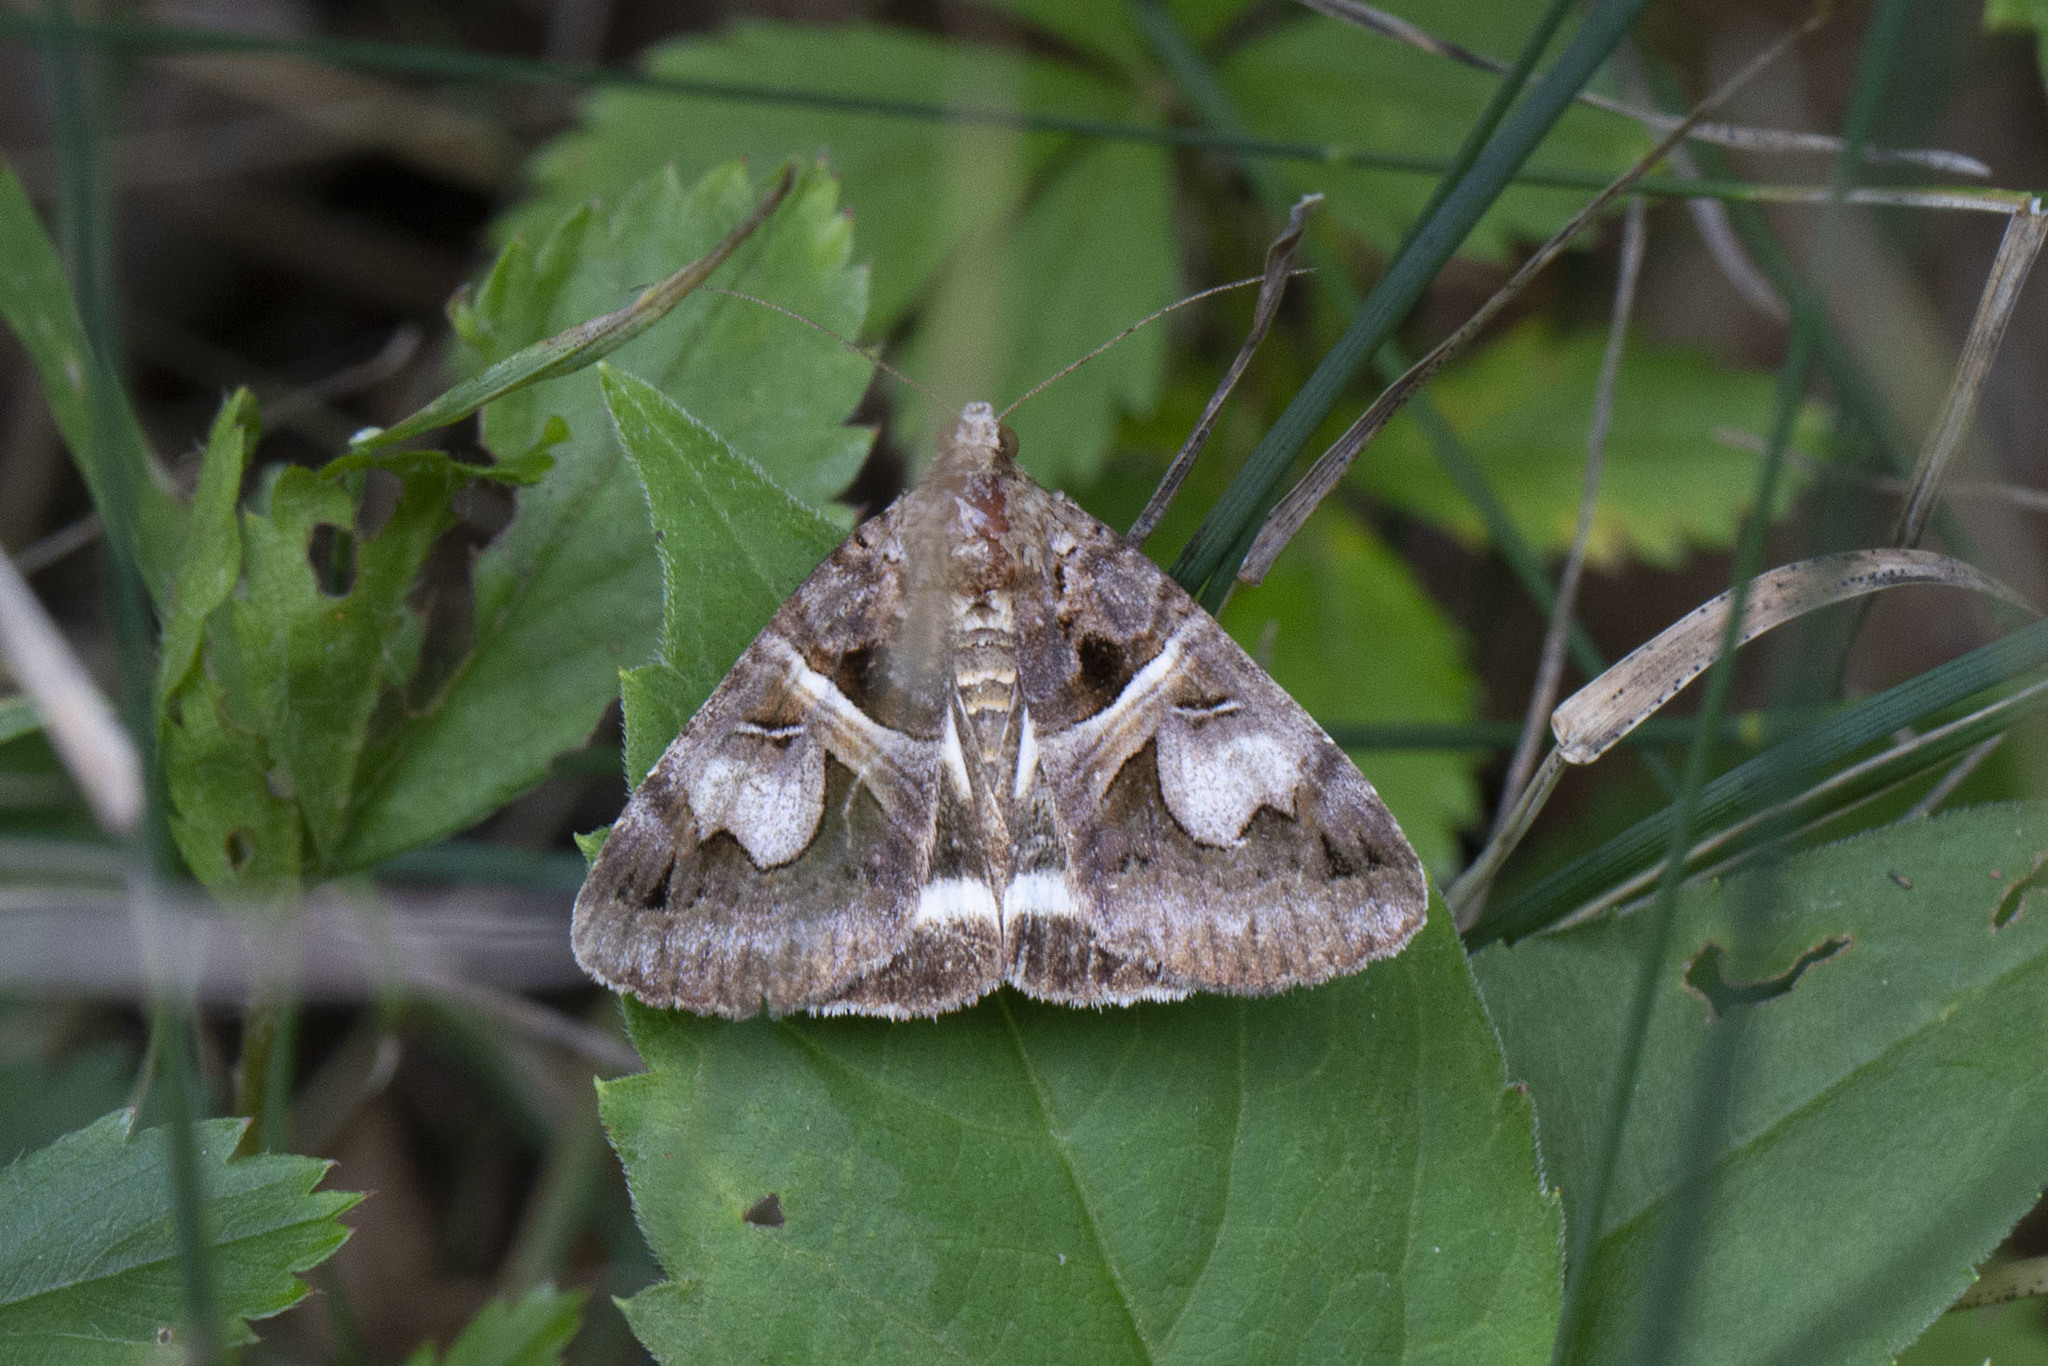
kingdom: Animalia
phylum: Arthropoda
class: Insecta
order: Lepidoptera
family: Erebidae
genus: Drasteria
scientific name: Drasteria grandirena
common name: Figure-seven moth
